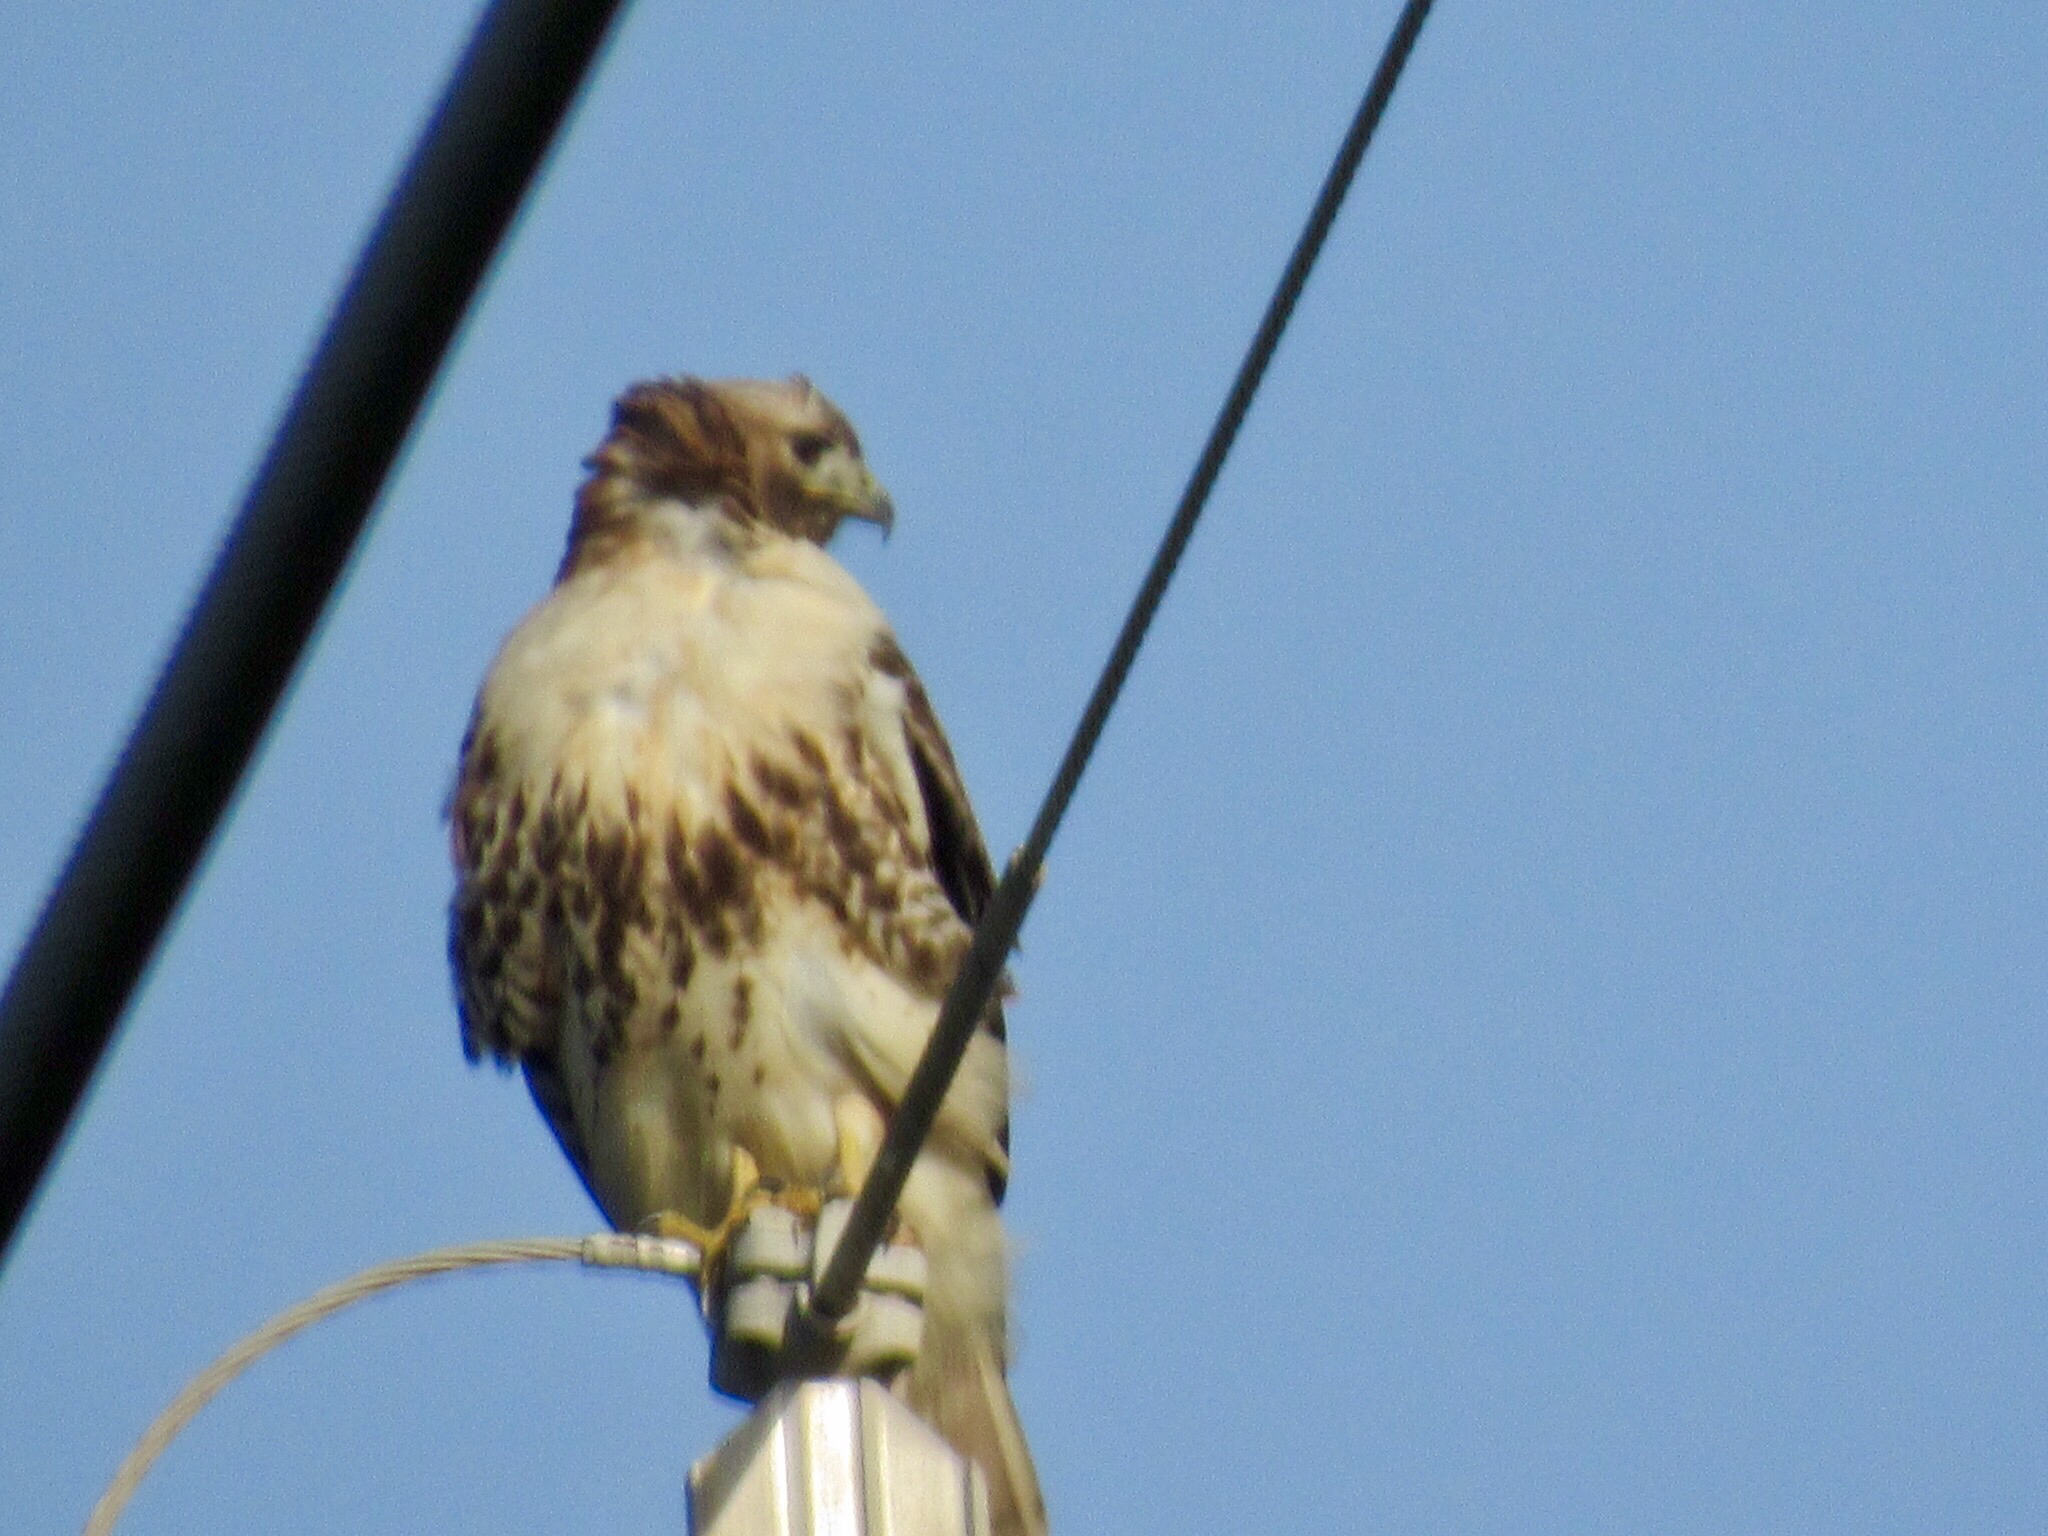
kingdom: Animalia
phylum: Chordata
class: Aves
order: Accipitriformes
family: Accipitridae
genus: Buteo
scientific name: Buteo jamaicensis
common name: Red-tailed hawk
